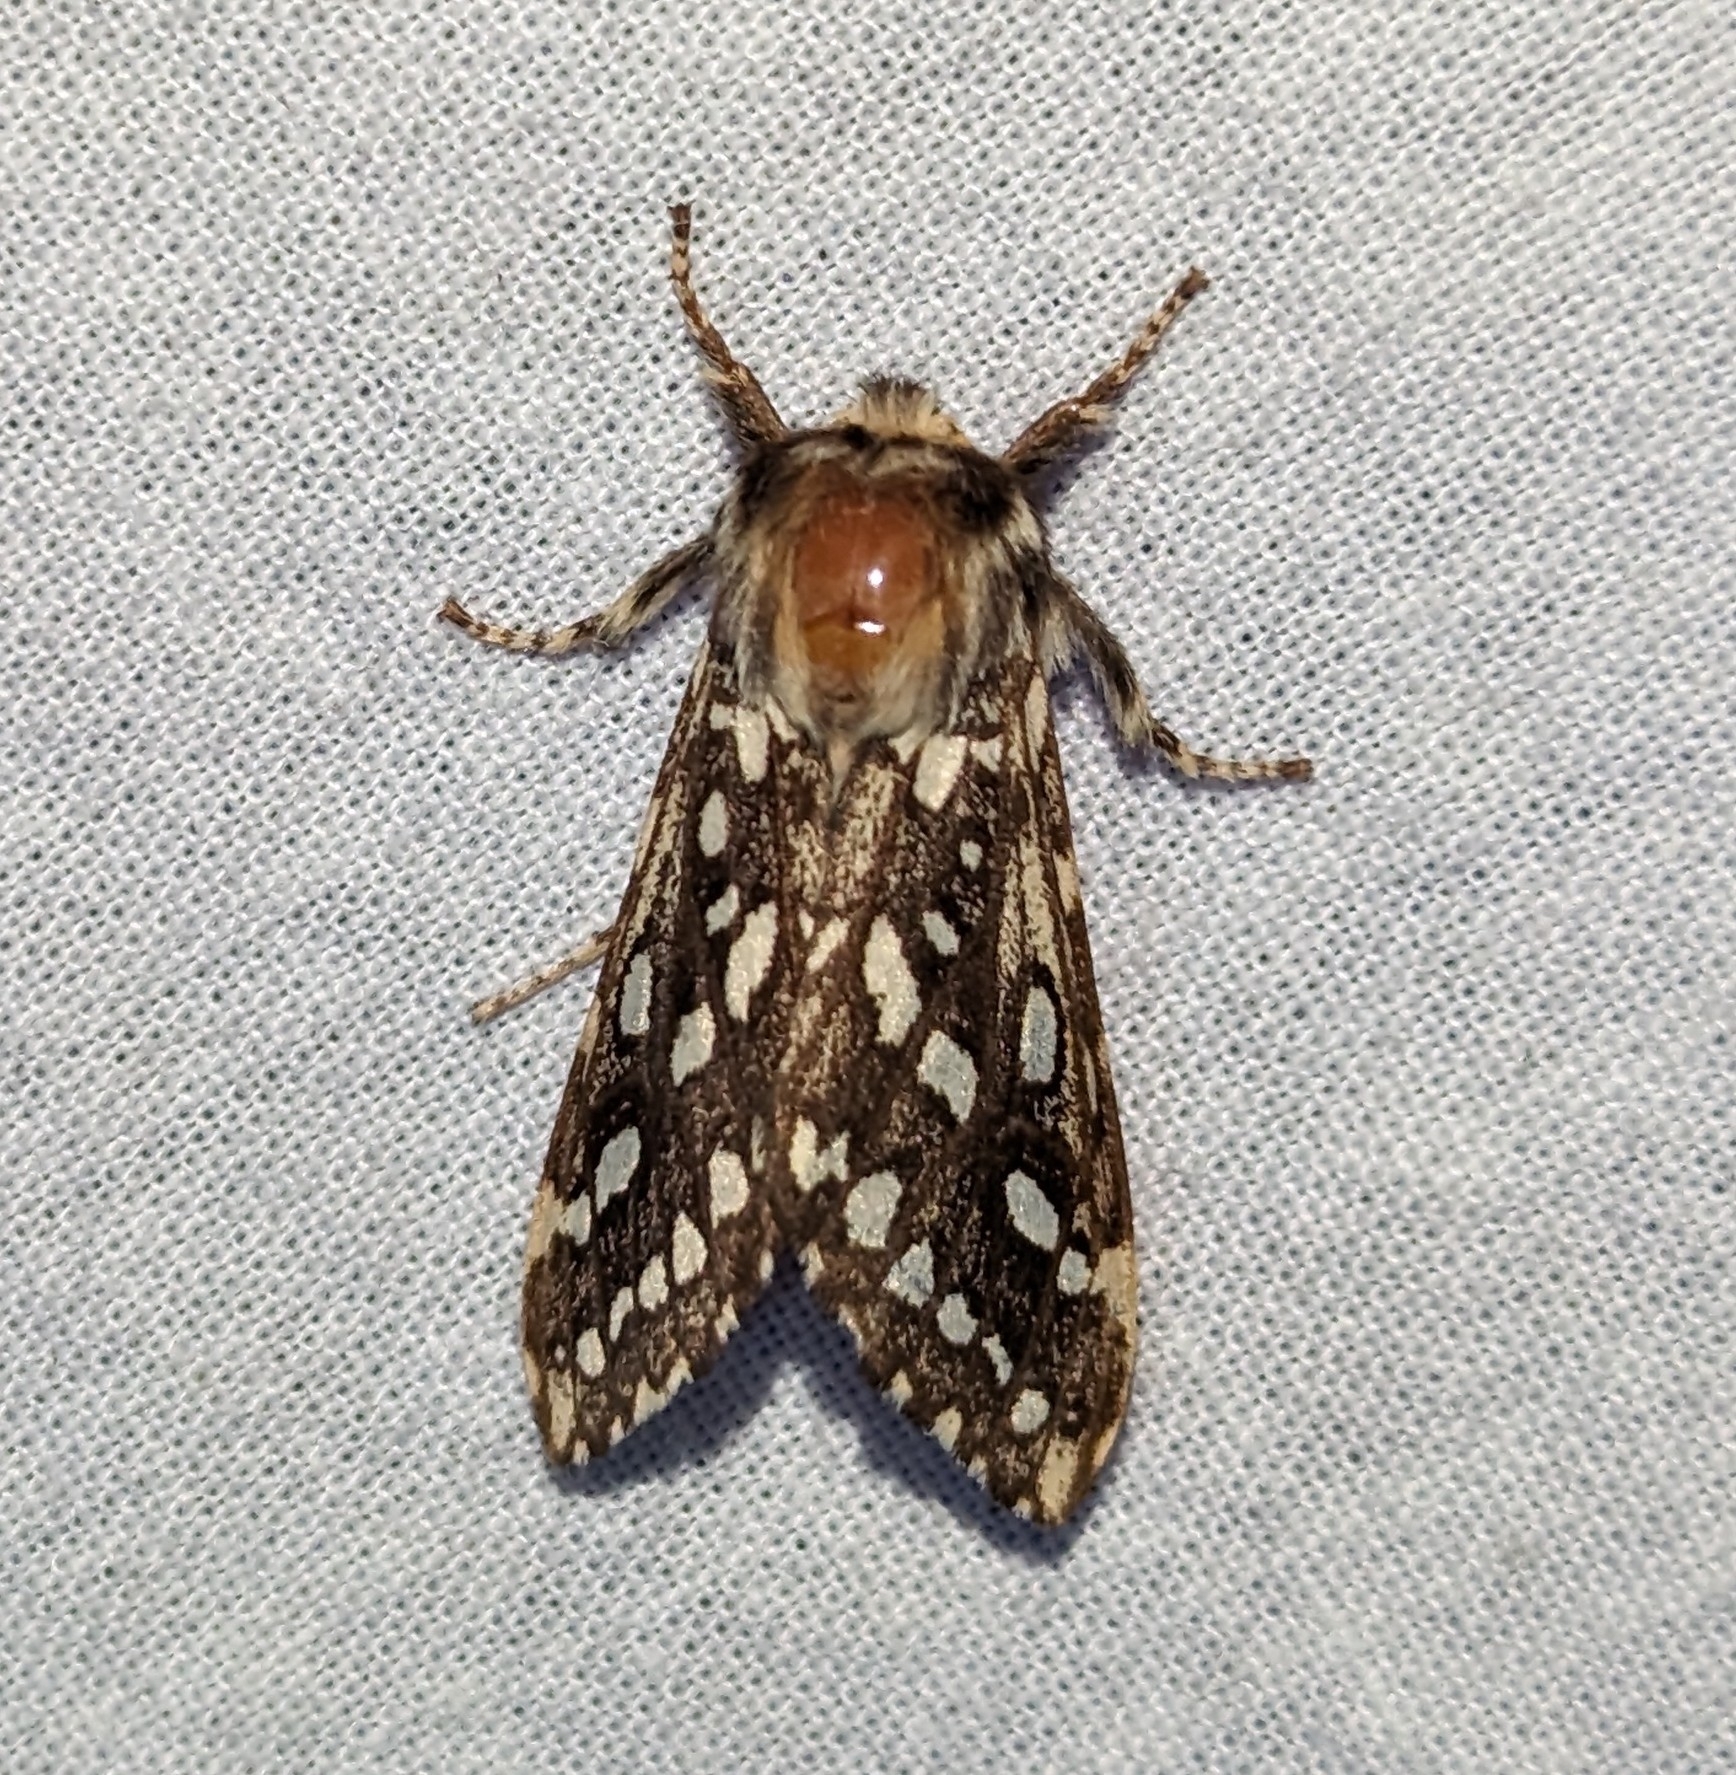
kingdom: Animalia
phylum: Arthropoda
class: Insecta
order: Lepidoptera
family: Erebidae
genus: Lophocampa
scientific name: Lophocampa argentata
